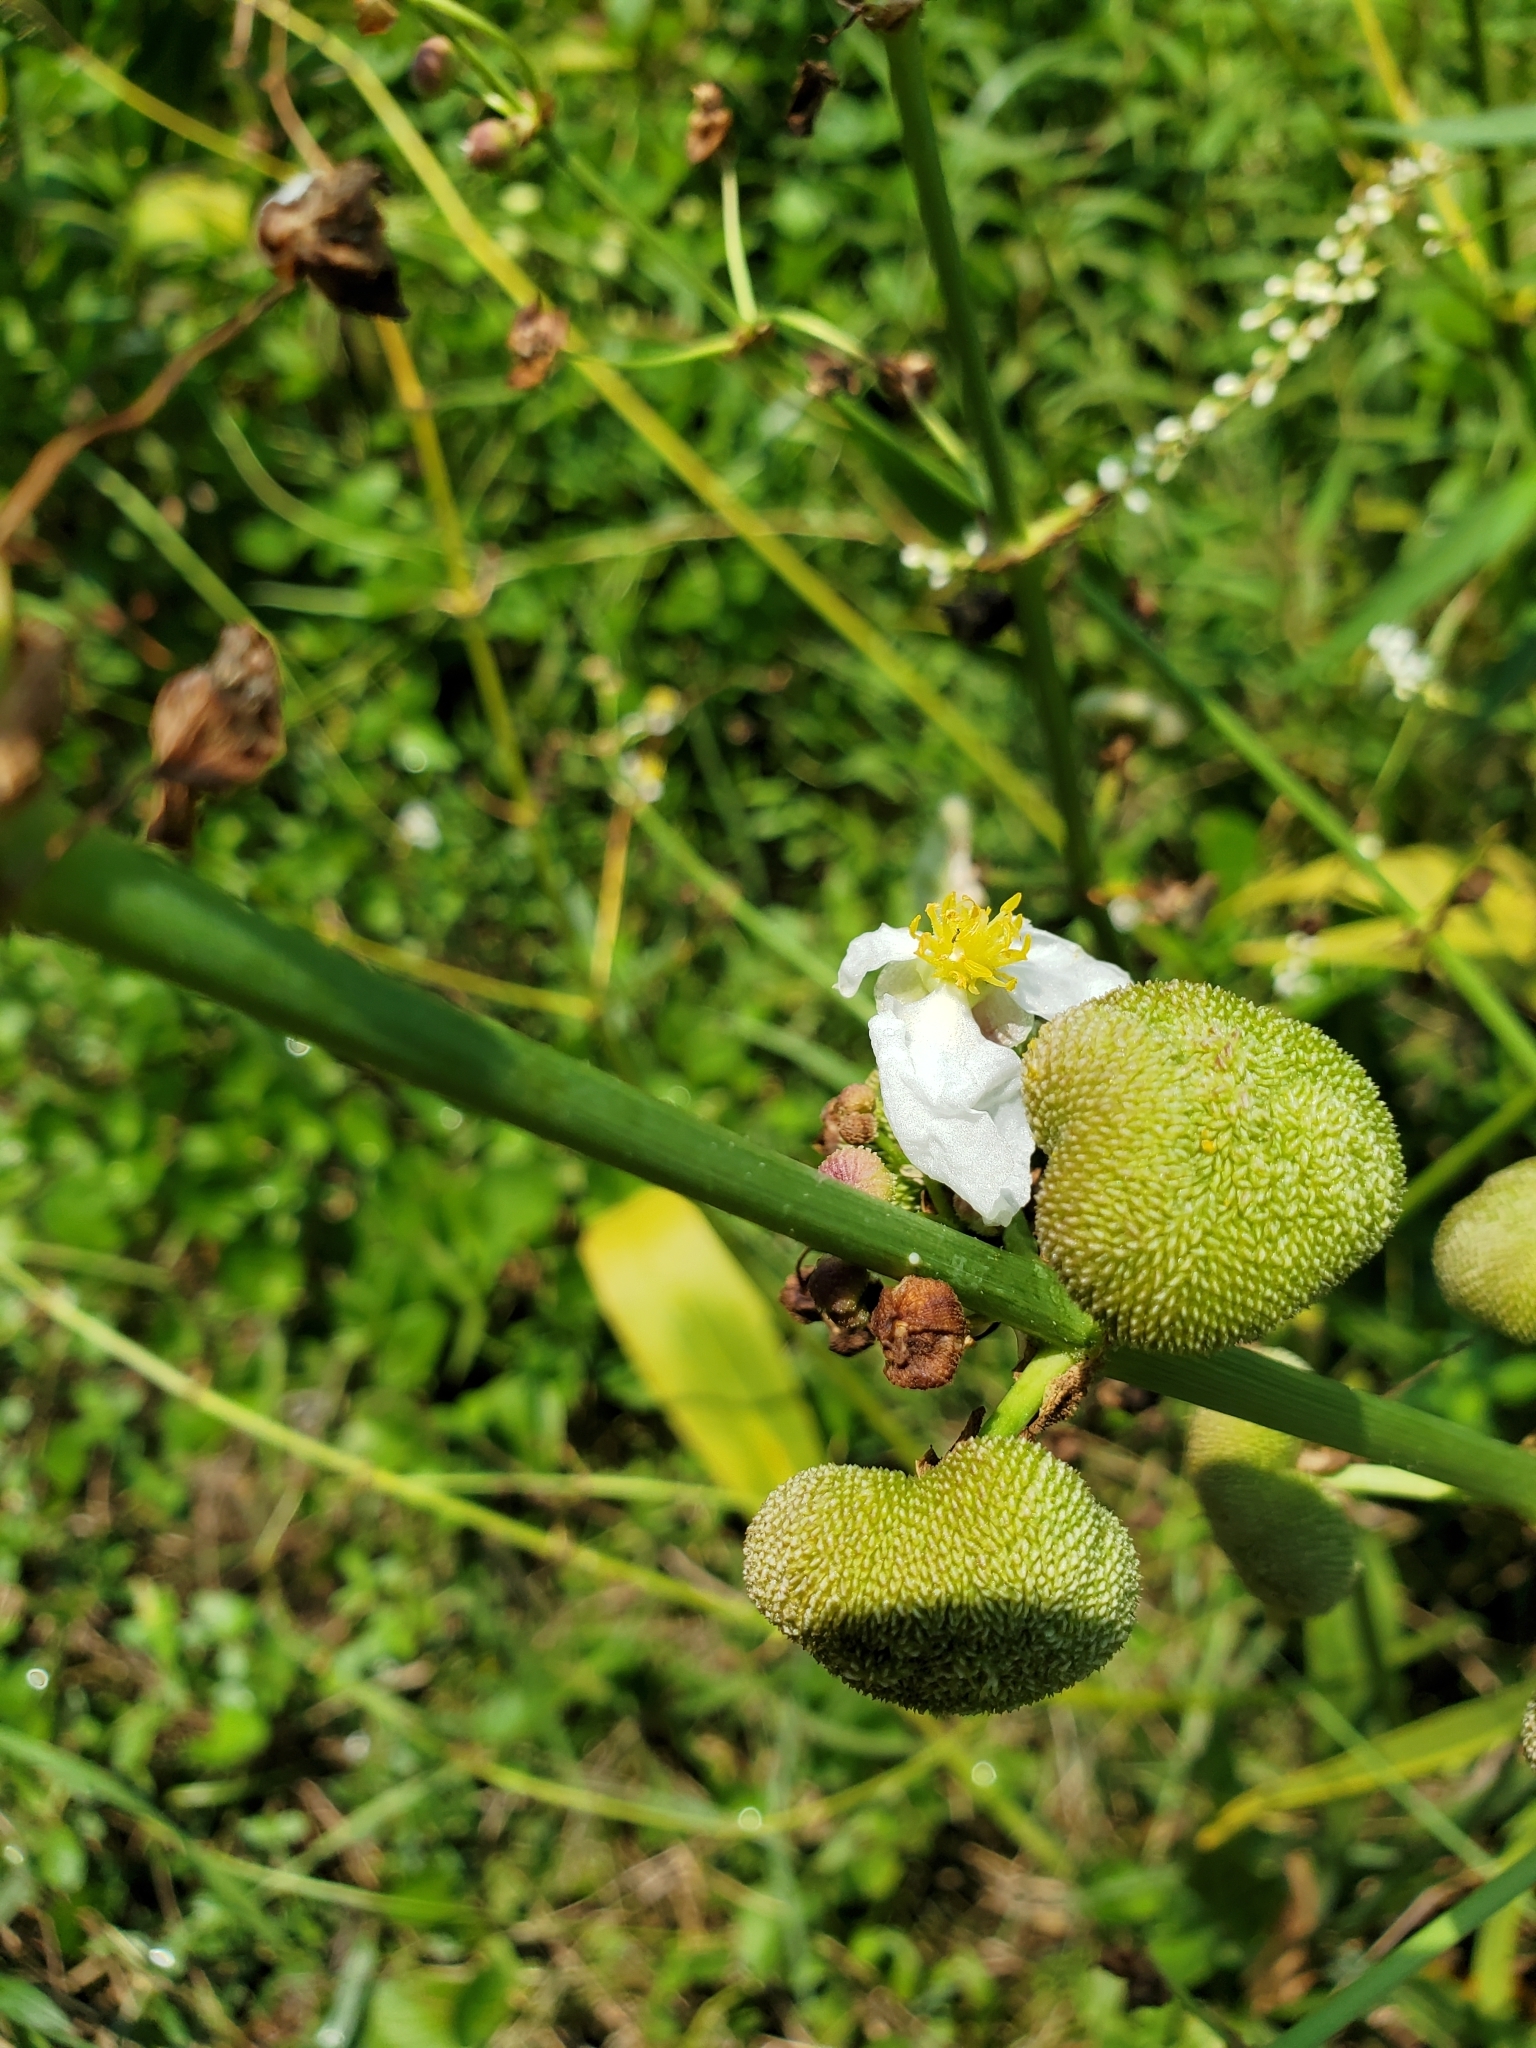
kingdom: Plantae
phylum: Tracheophyta
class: Liliopsida
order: Alismatales
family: Alismataceae
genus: Sagittaria
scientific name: Sagittaria lancifolia
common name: Lance-leaf arrowhead
